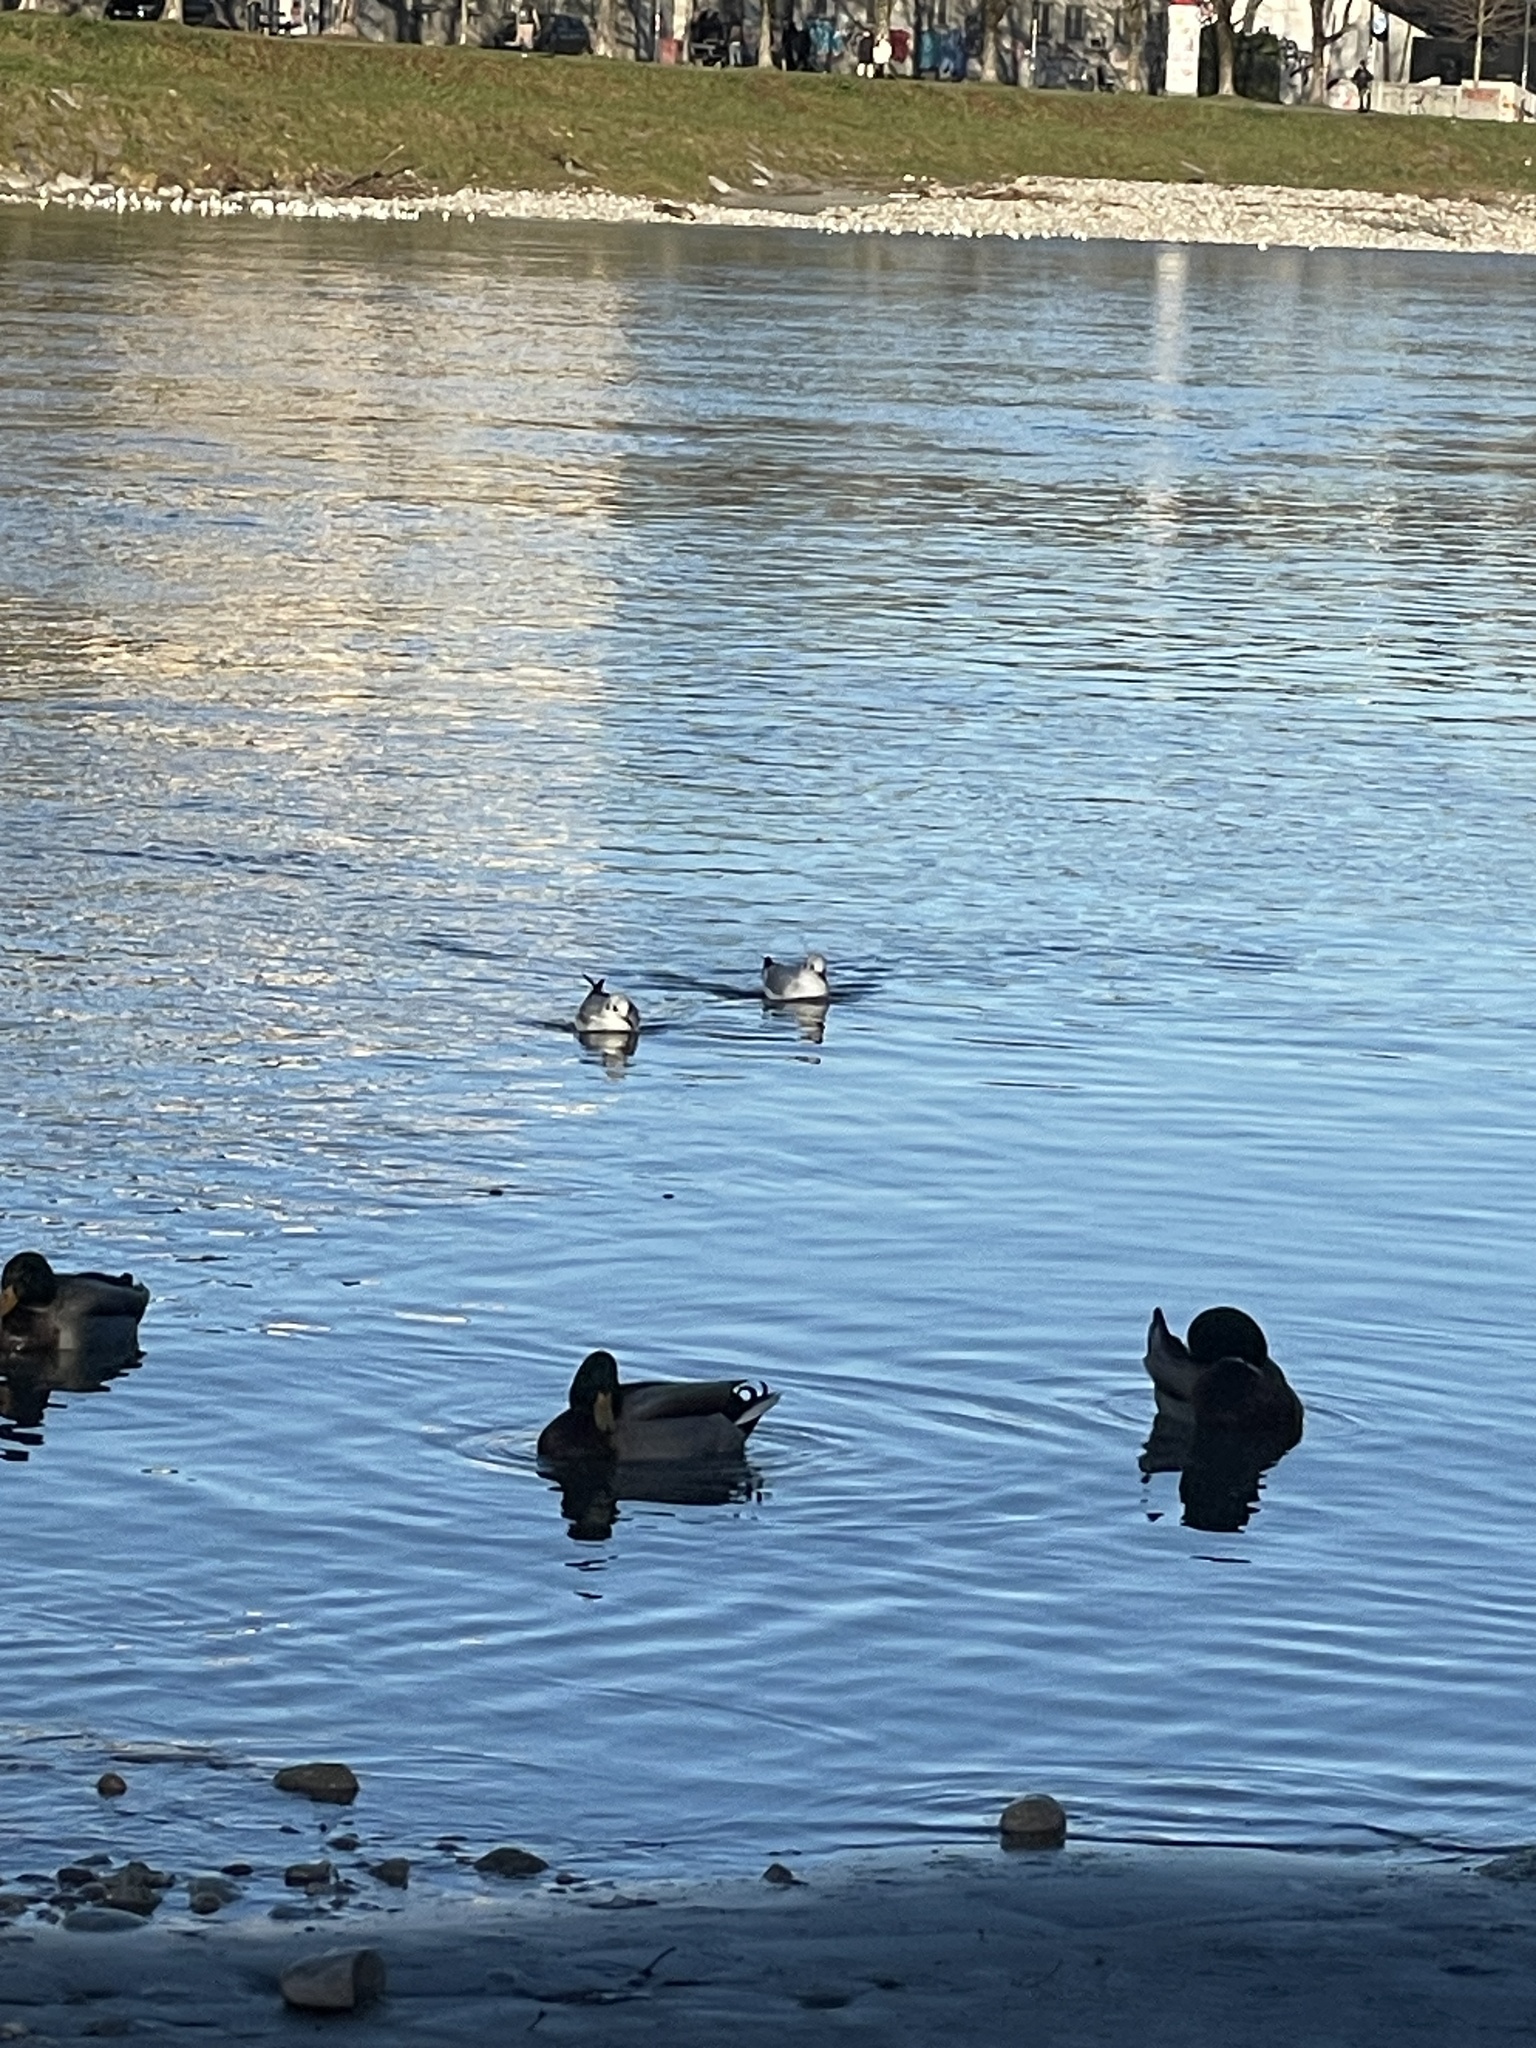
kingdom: Animalia
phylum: Chordata
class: Aves
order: Charadriiformes
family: Laridae
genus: Chroicocephalus
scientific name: Chroicocephalus ridibundus
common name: Black-headed gull
